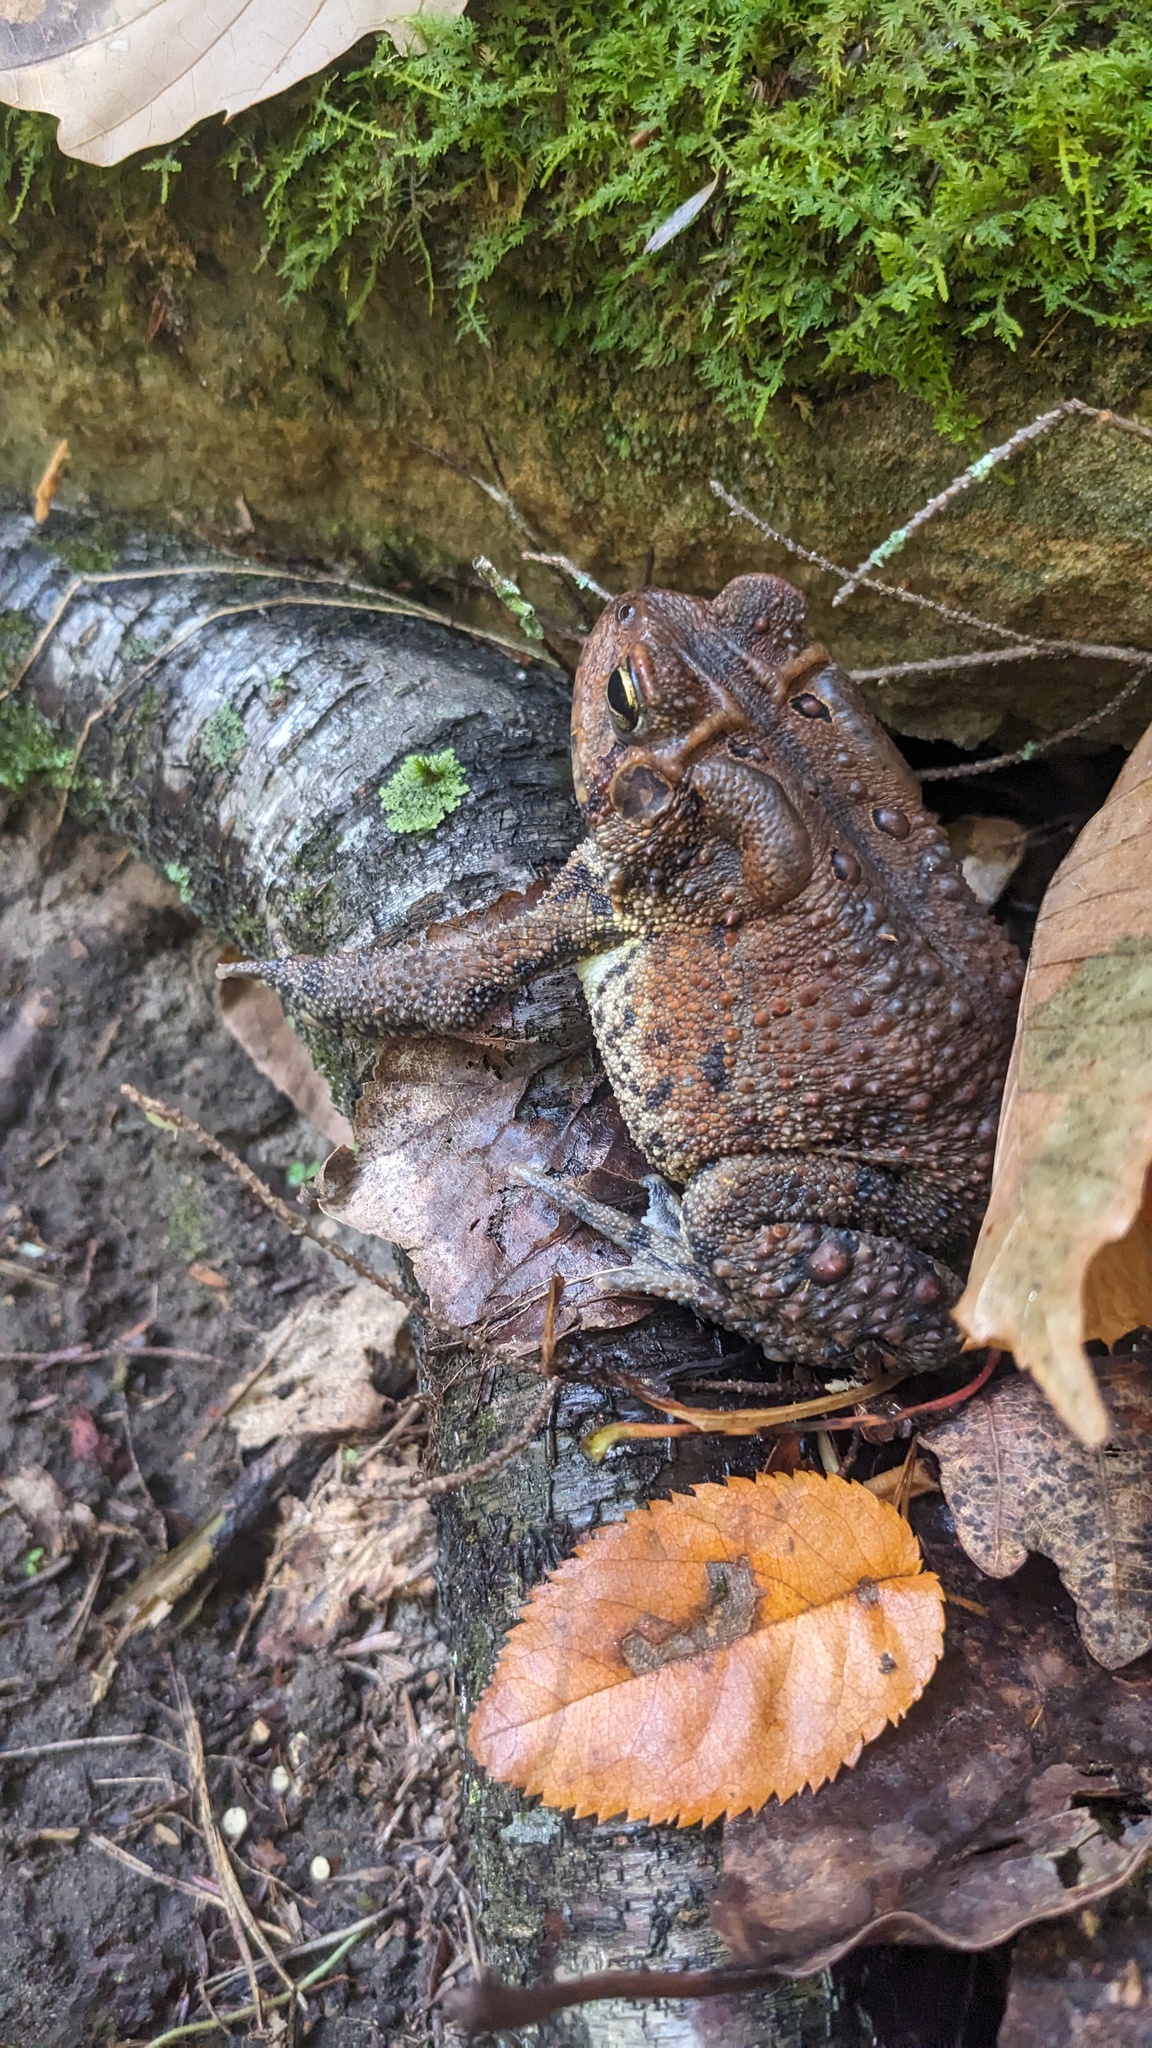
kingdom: Animalia
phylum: Chordata
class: Amphibia
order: Anura
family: Bufonidae
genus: Anaxyrus
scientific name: Anaxyrus americanus
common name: American toad
